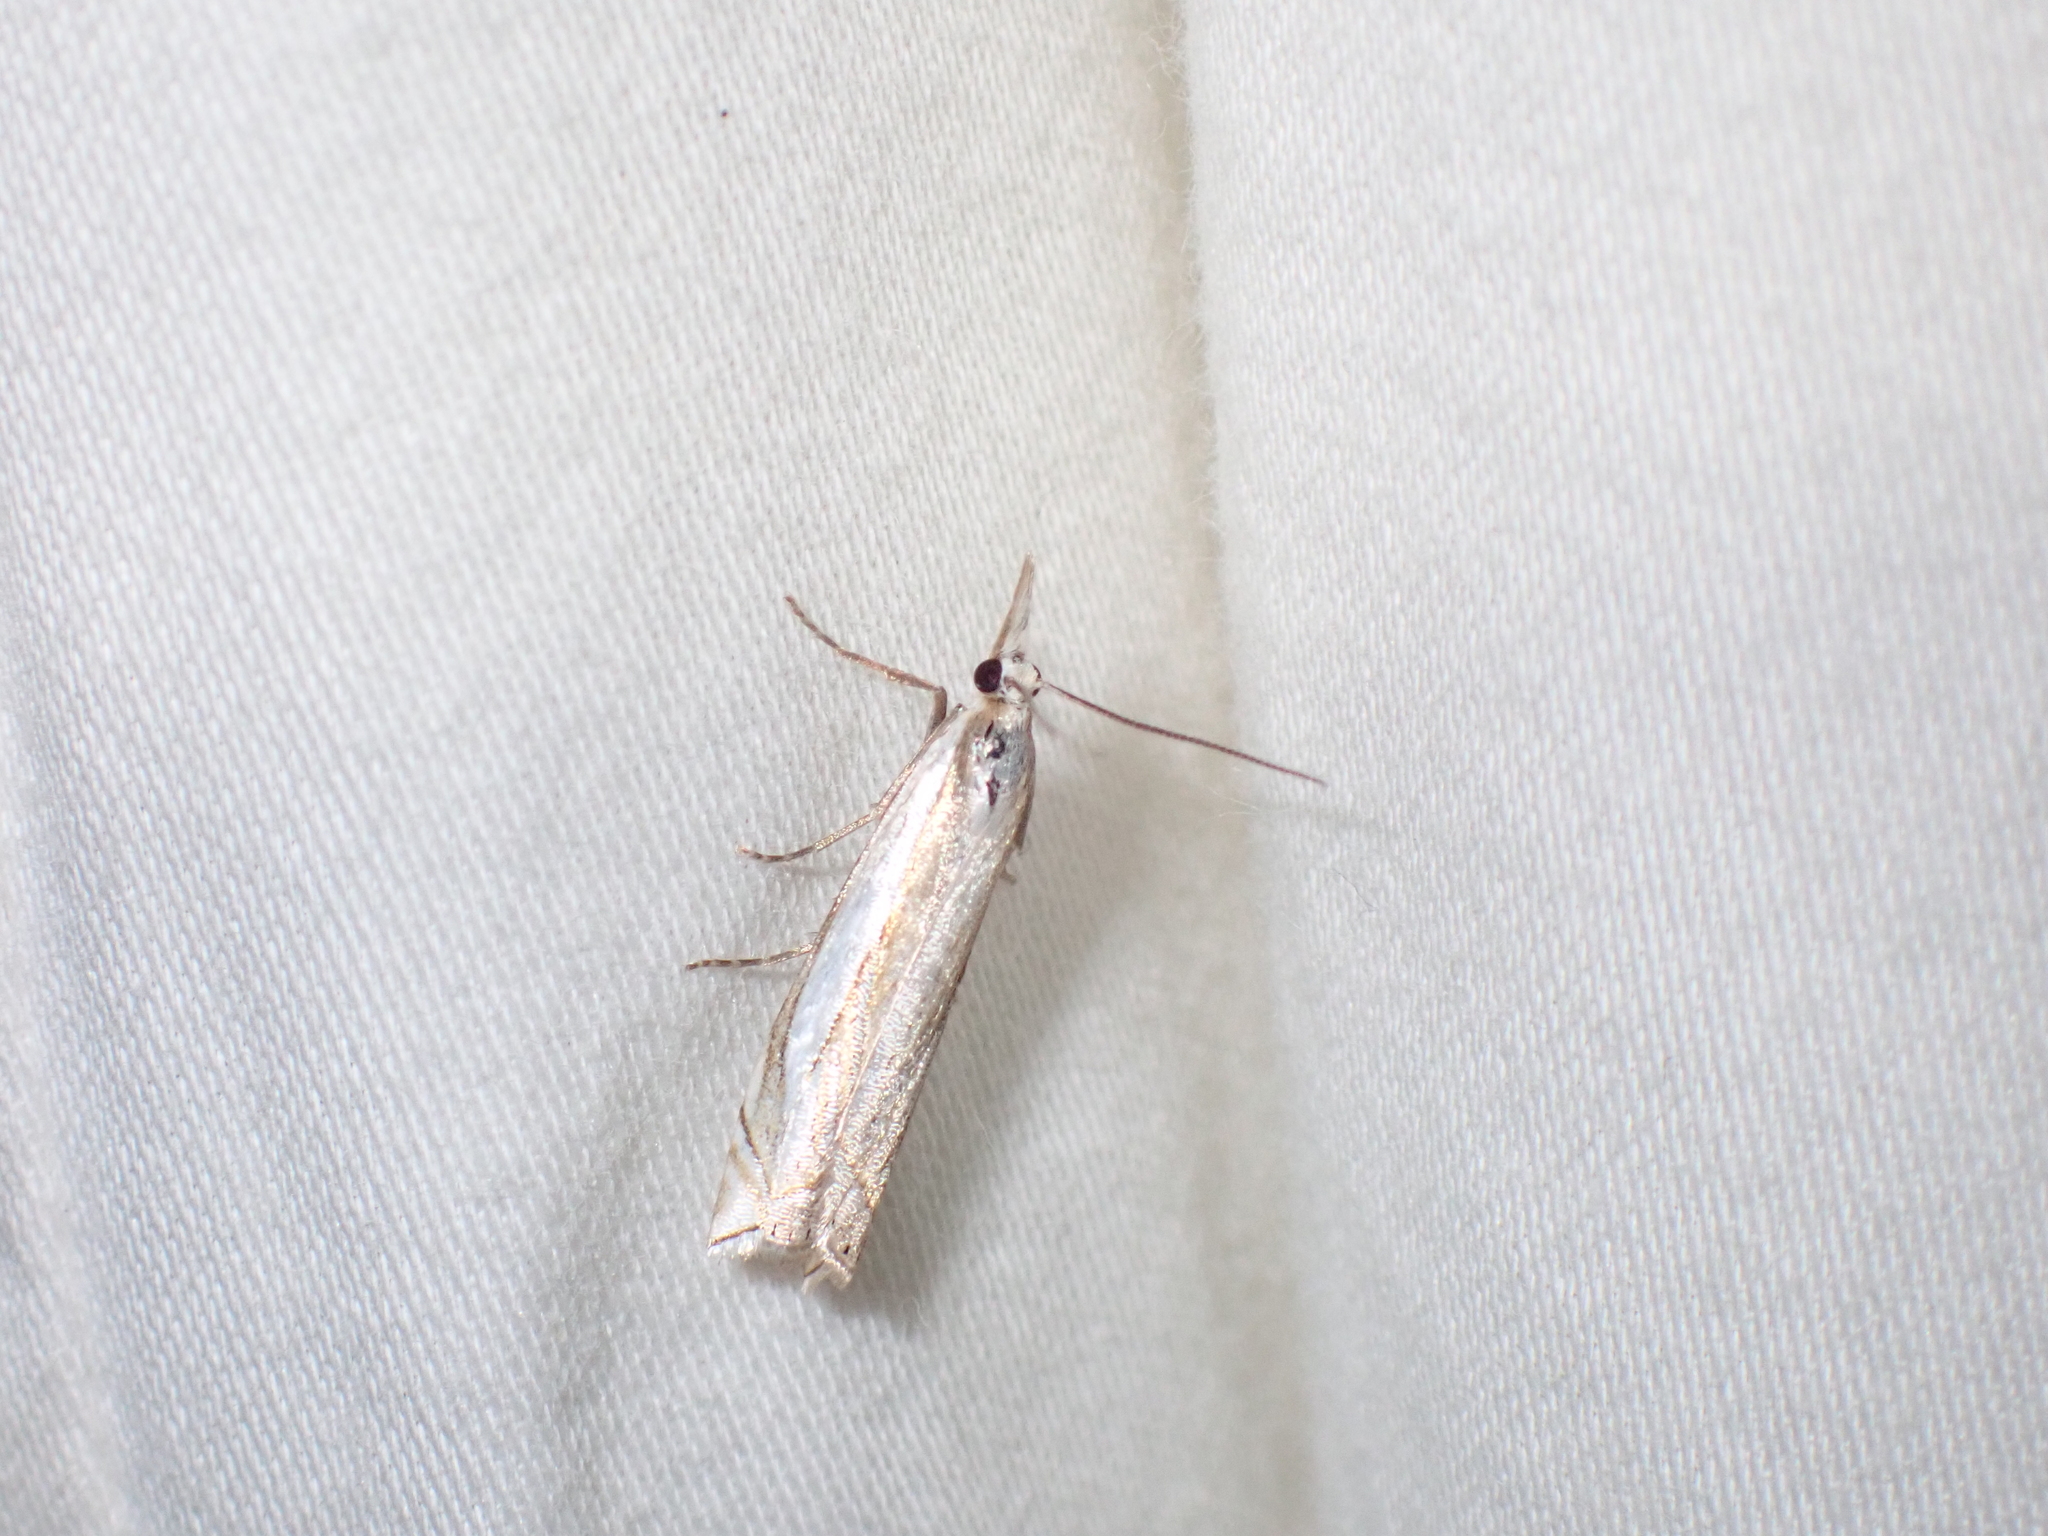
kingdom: Animalia
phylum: Arthropoda
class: Insecta
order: Lepidoptera
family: Crambidae
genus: Crambus
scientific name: Crambus pascuella
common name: Inlaid grass-veneer
